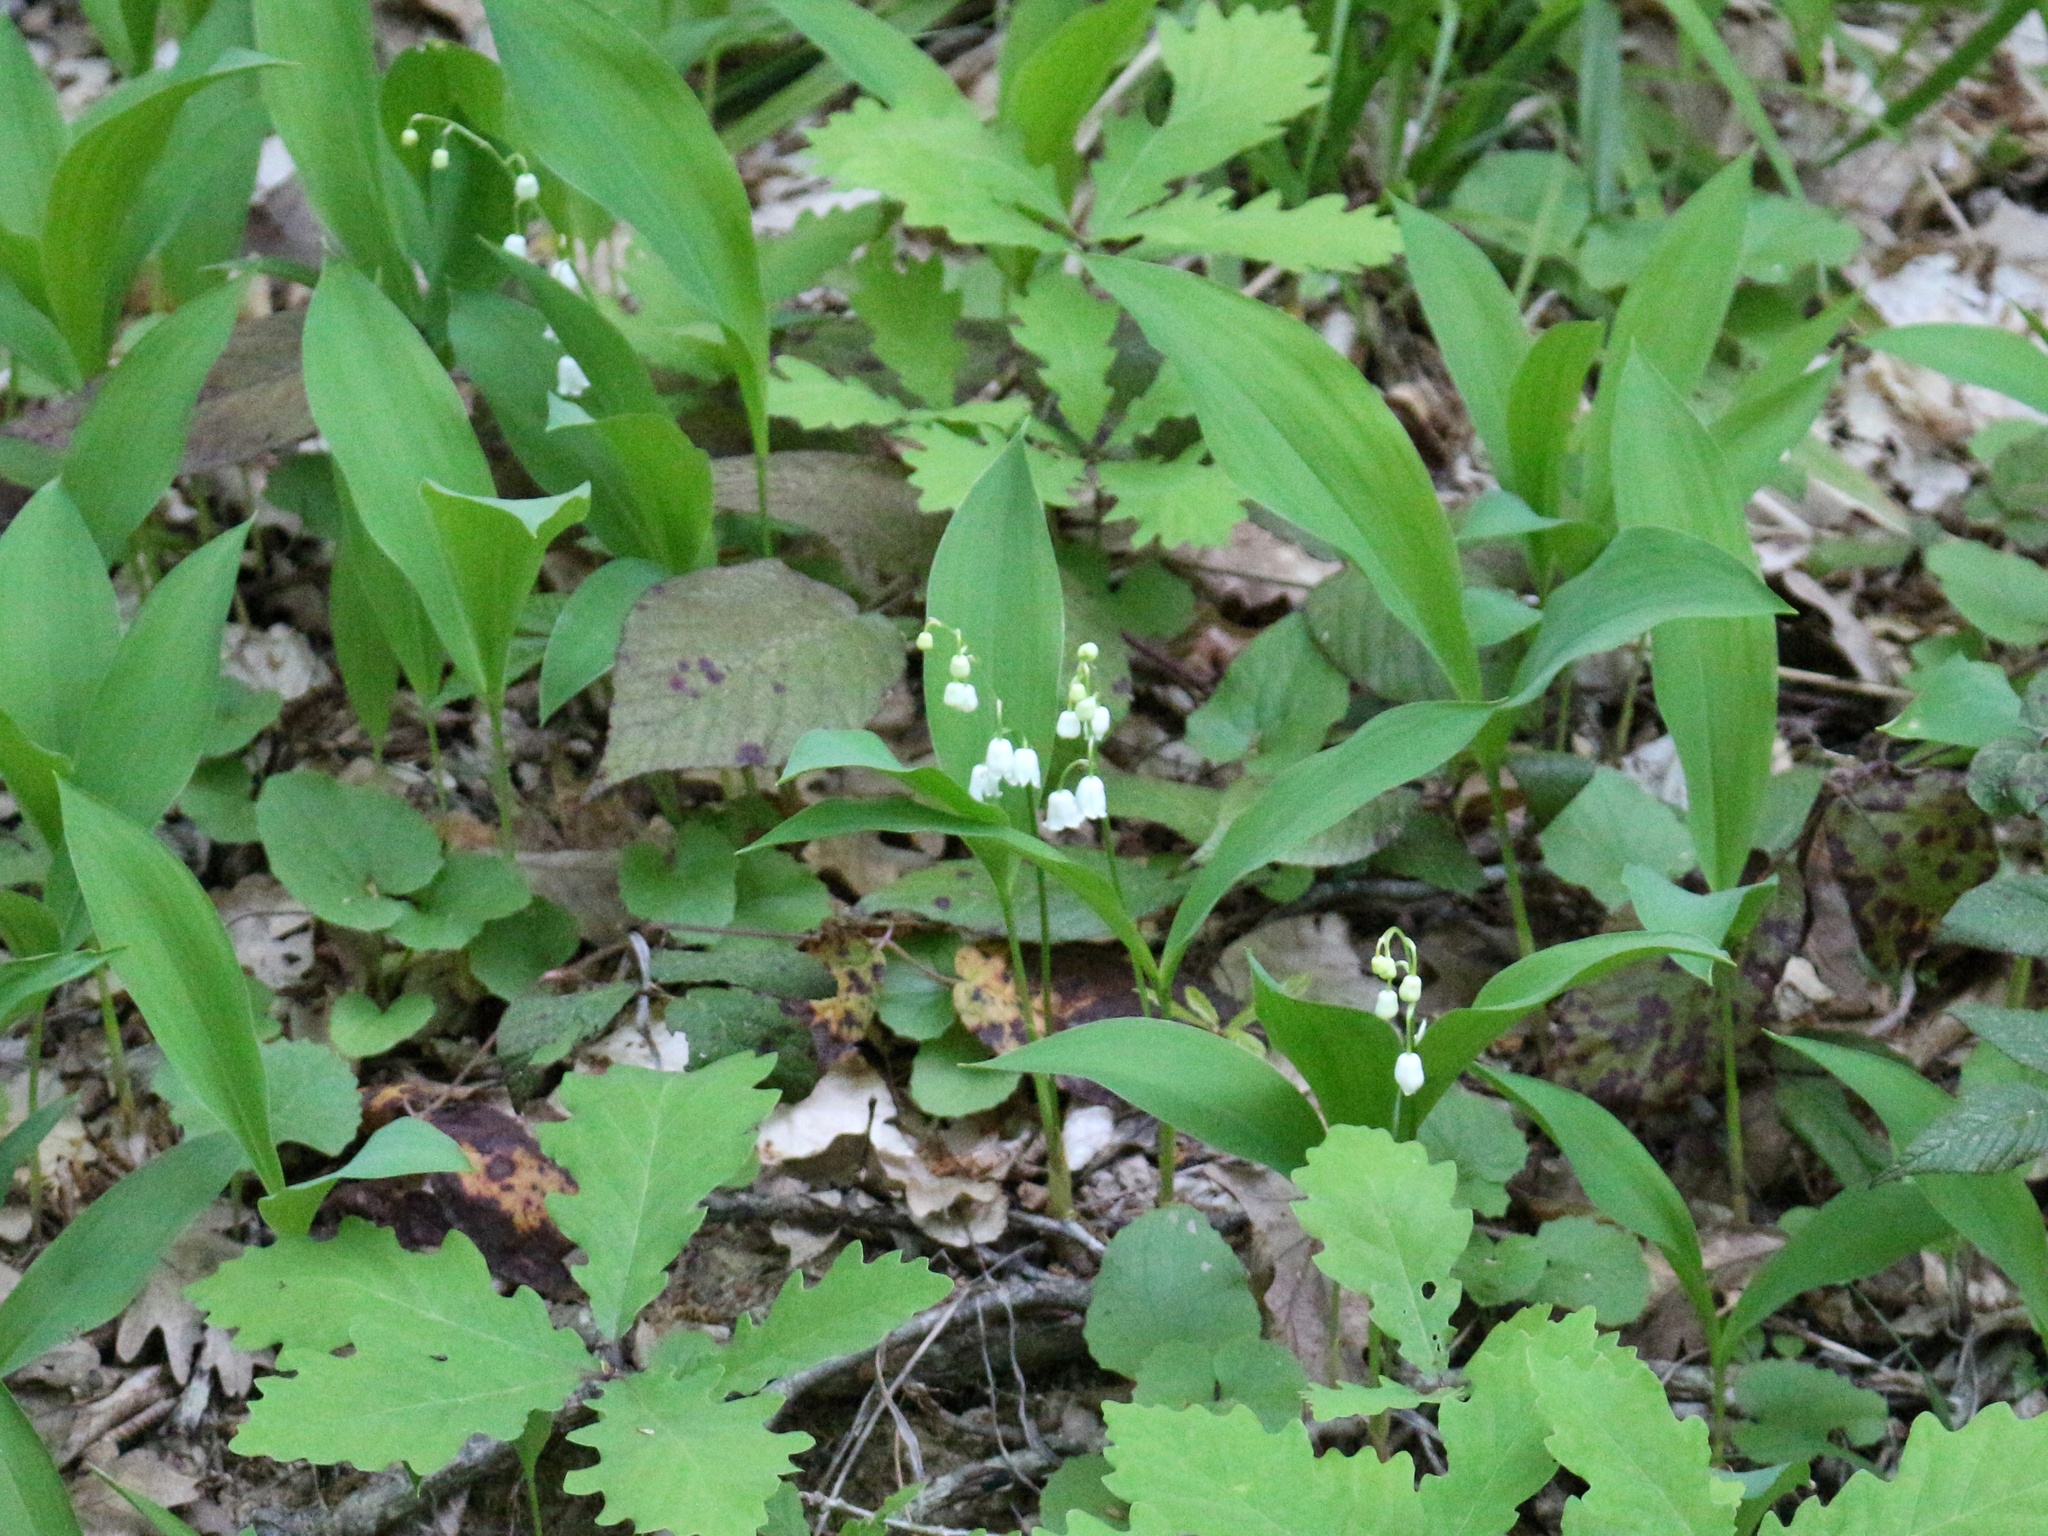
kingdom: Plantae
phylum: Tracheophyta
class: Liliopsida
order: Asparagales
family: Asparagaceae
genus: Convallaria
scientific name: Convallaria majalis
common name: Lily-of-the-valley
